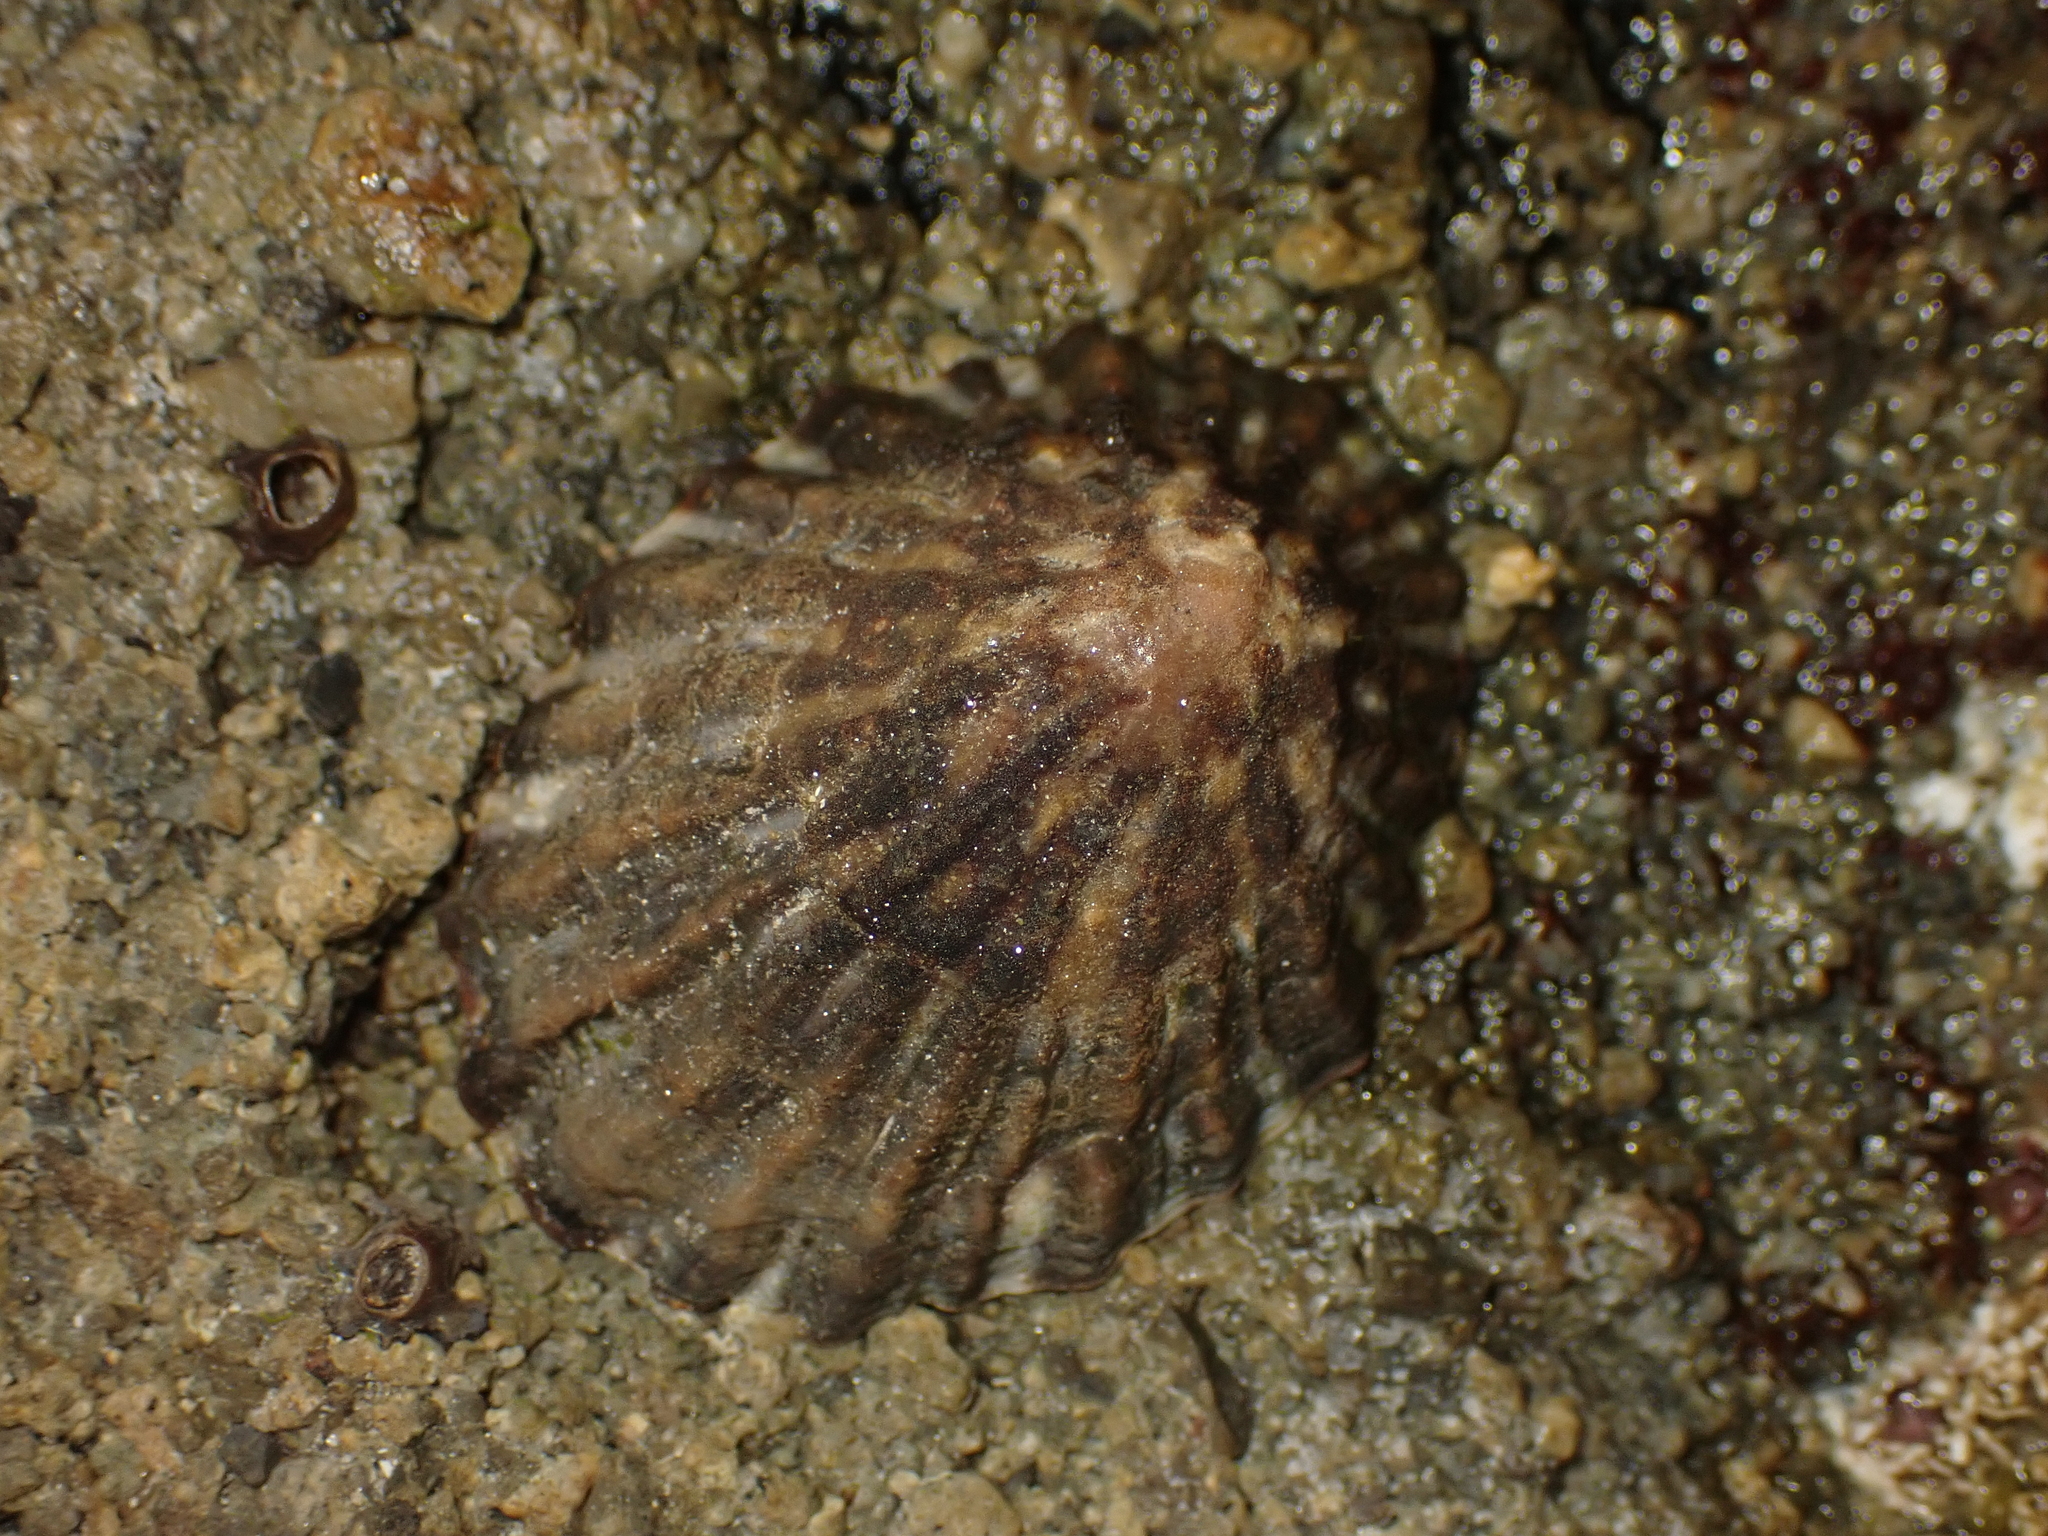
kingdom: Animalia
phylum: Mollusca
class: Gastropoda
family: Nacellidae
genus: Cellana
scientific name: Cellana strigilis
